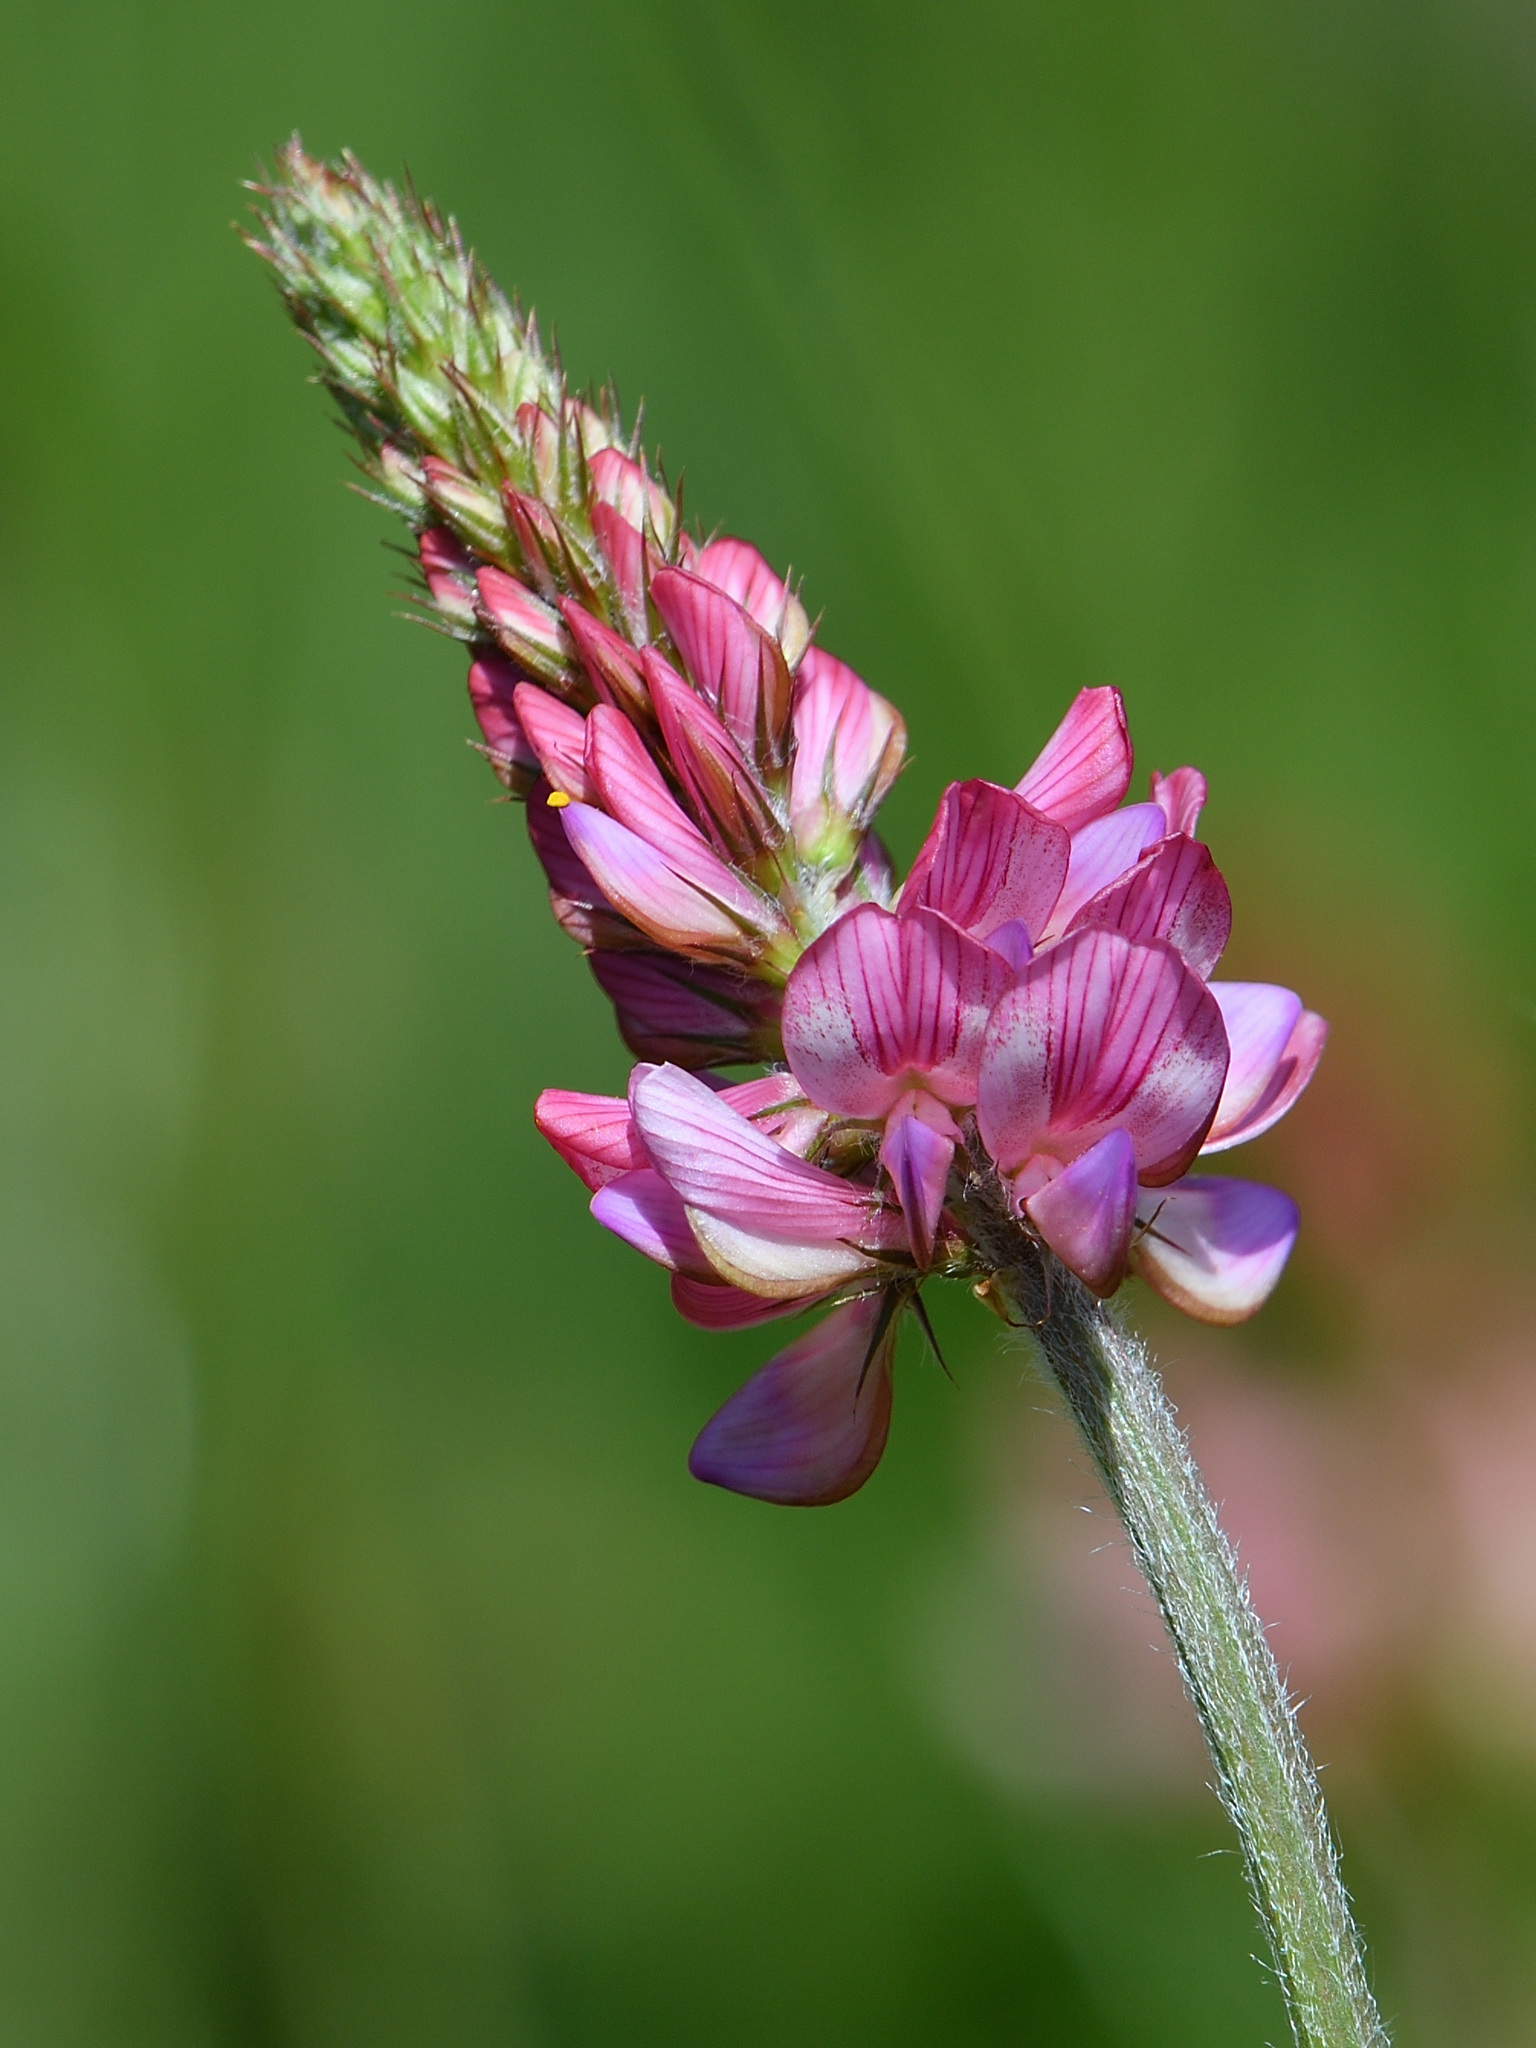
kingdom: Plantae
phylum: Tracheophyta
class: Magnoliopsida
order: Fabales
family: Fabaceae
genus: Onobrychis
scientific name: Onobrychis viciifolia
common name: Sainfoin
